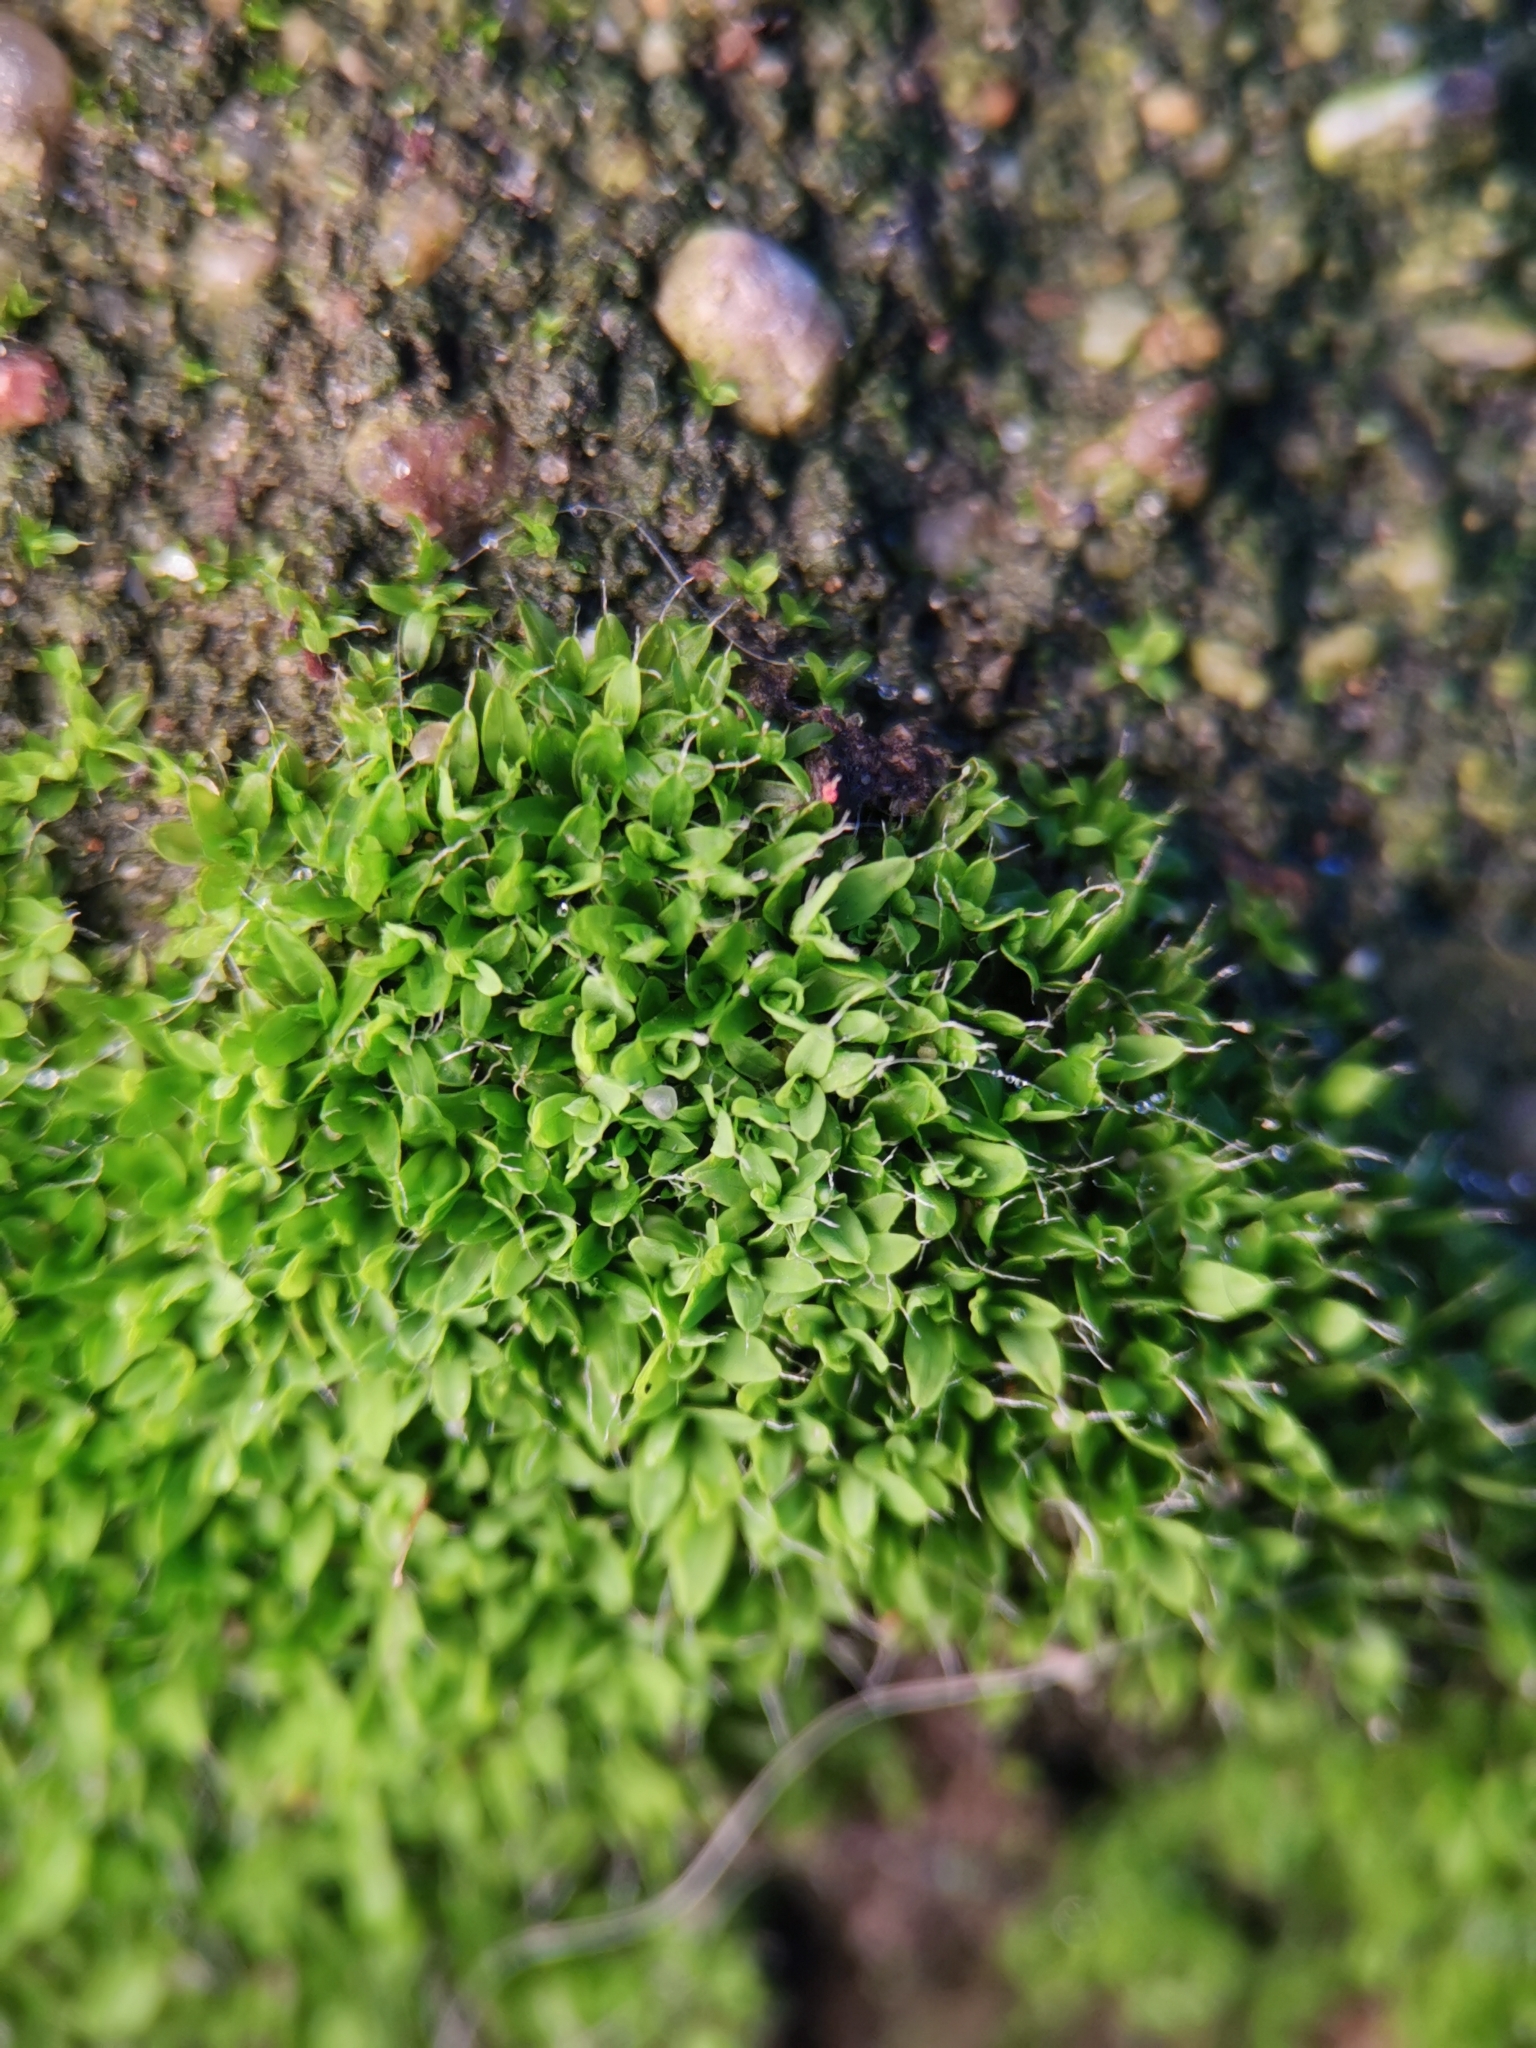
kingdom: Plantae
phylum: Bryophyta
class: Bryopsida
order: Pottiales
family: Pottiaceae
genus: Tortula
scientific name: Tortula muralis
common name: Wall screw-moss
